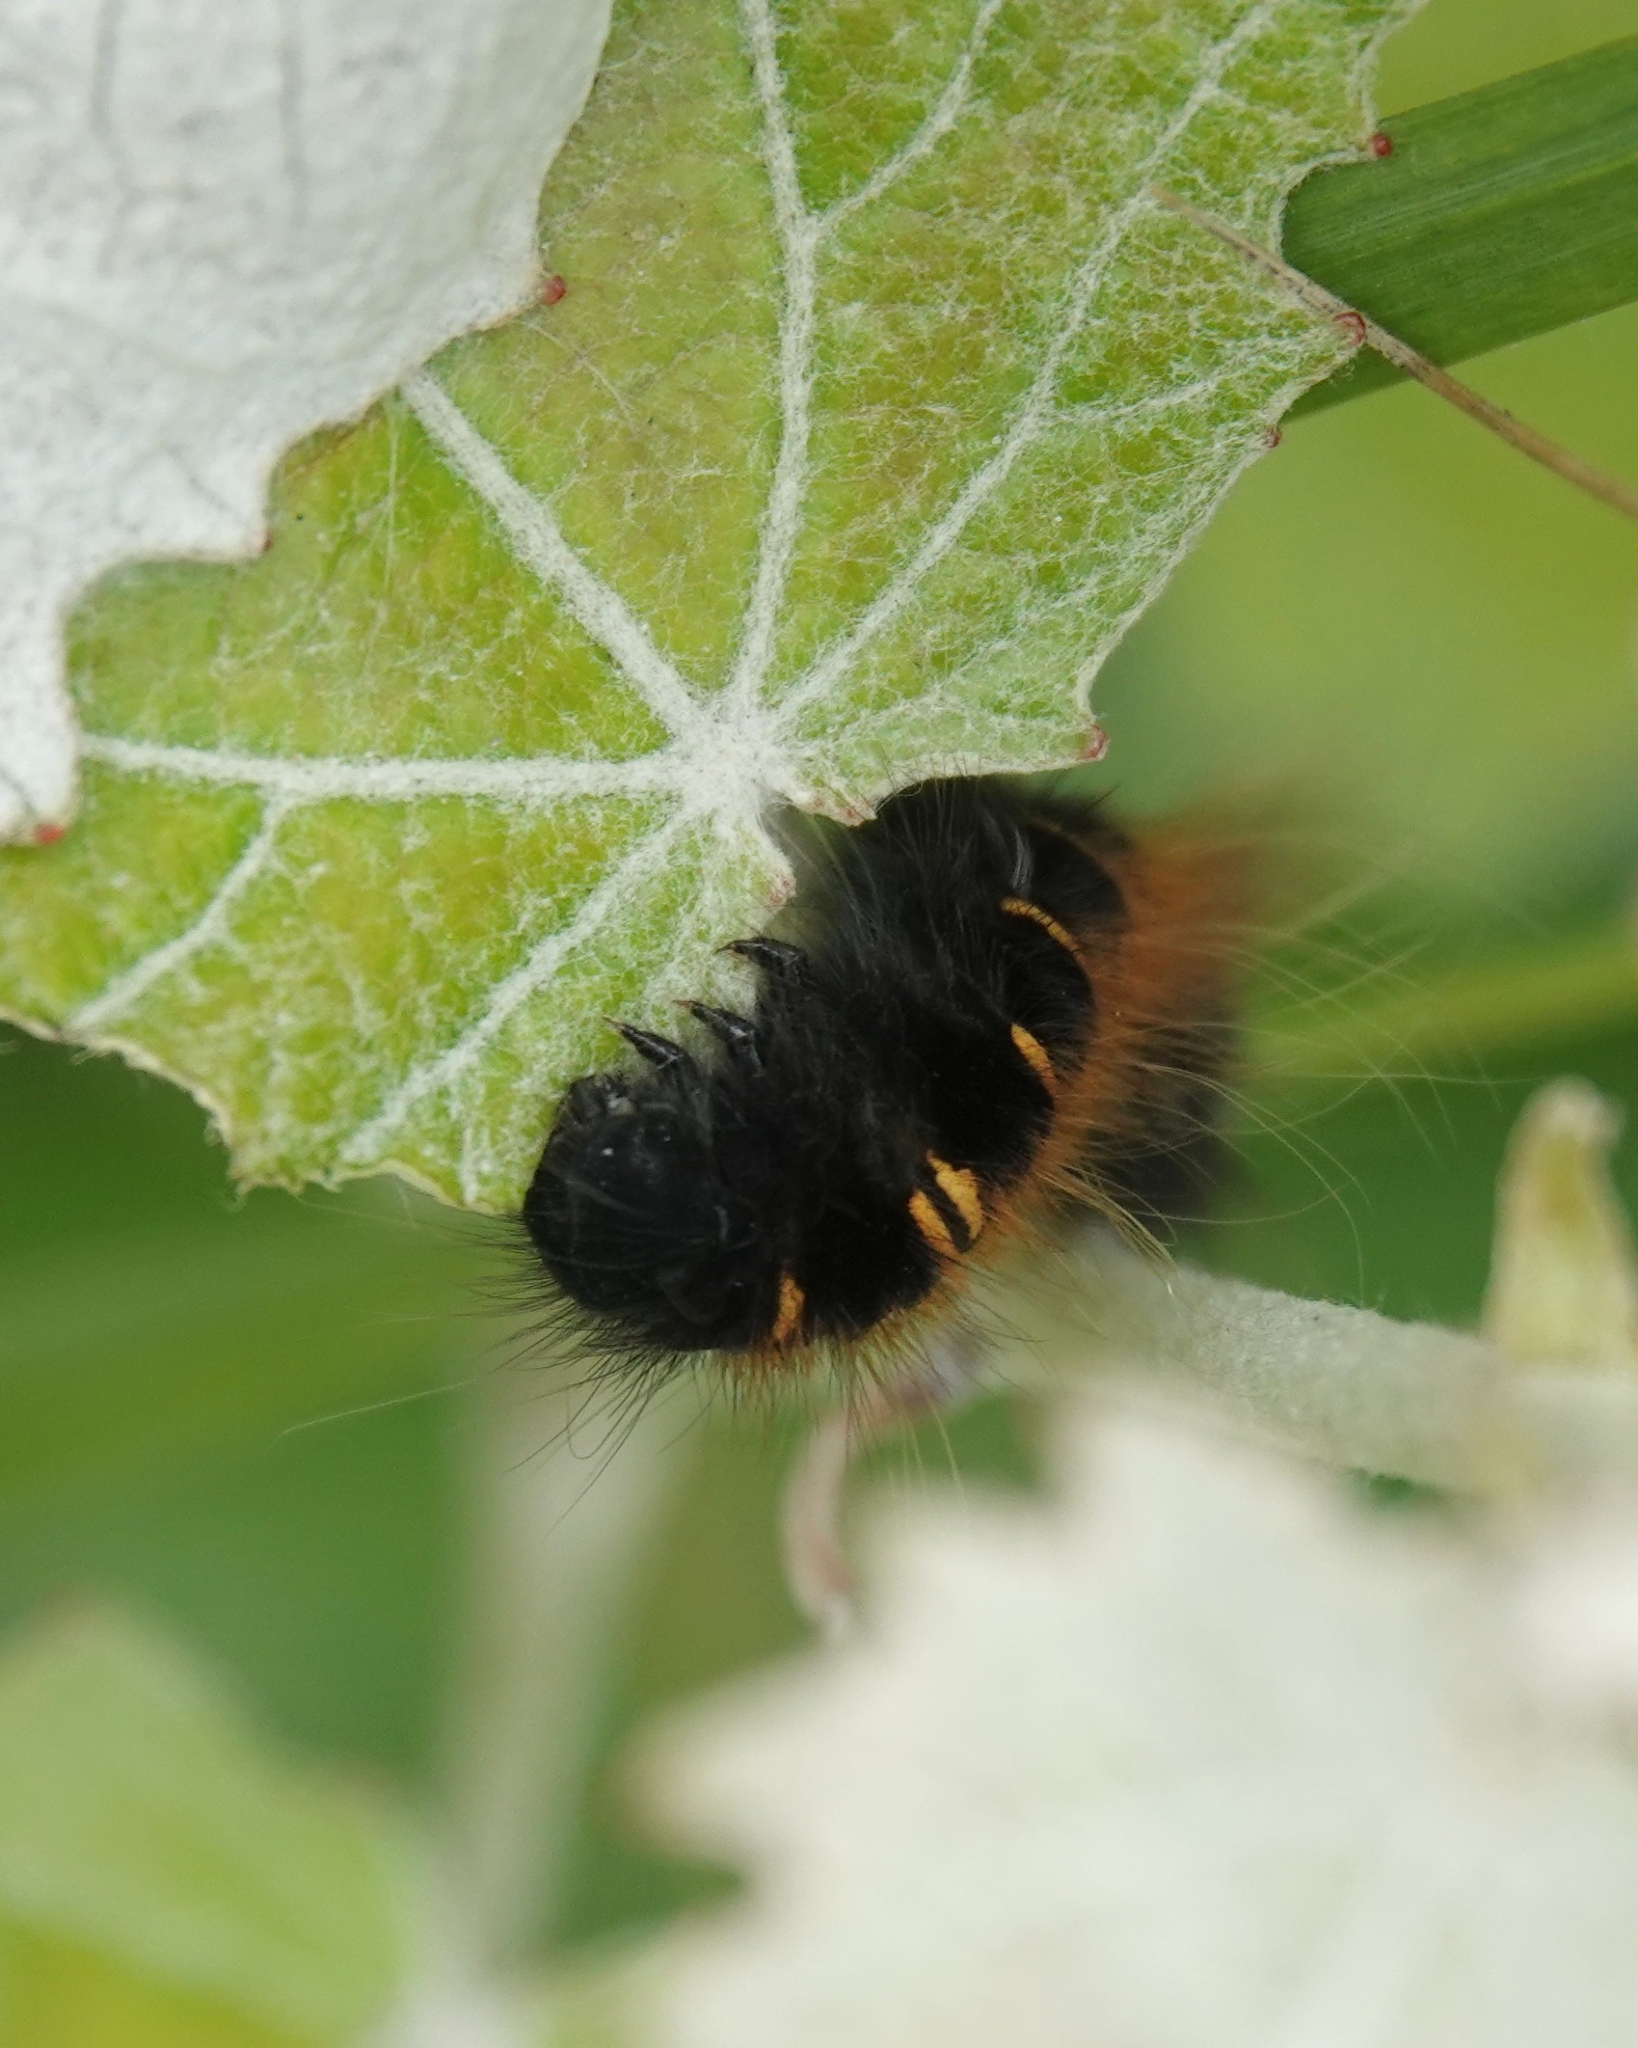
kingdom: Animalia
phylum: Arthropoda
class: Insecta
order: Lepidoptera
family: Lasiocampidae
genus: Macrothylacia
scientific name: Macrothylacia rubi
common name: Fox moth
